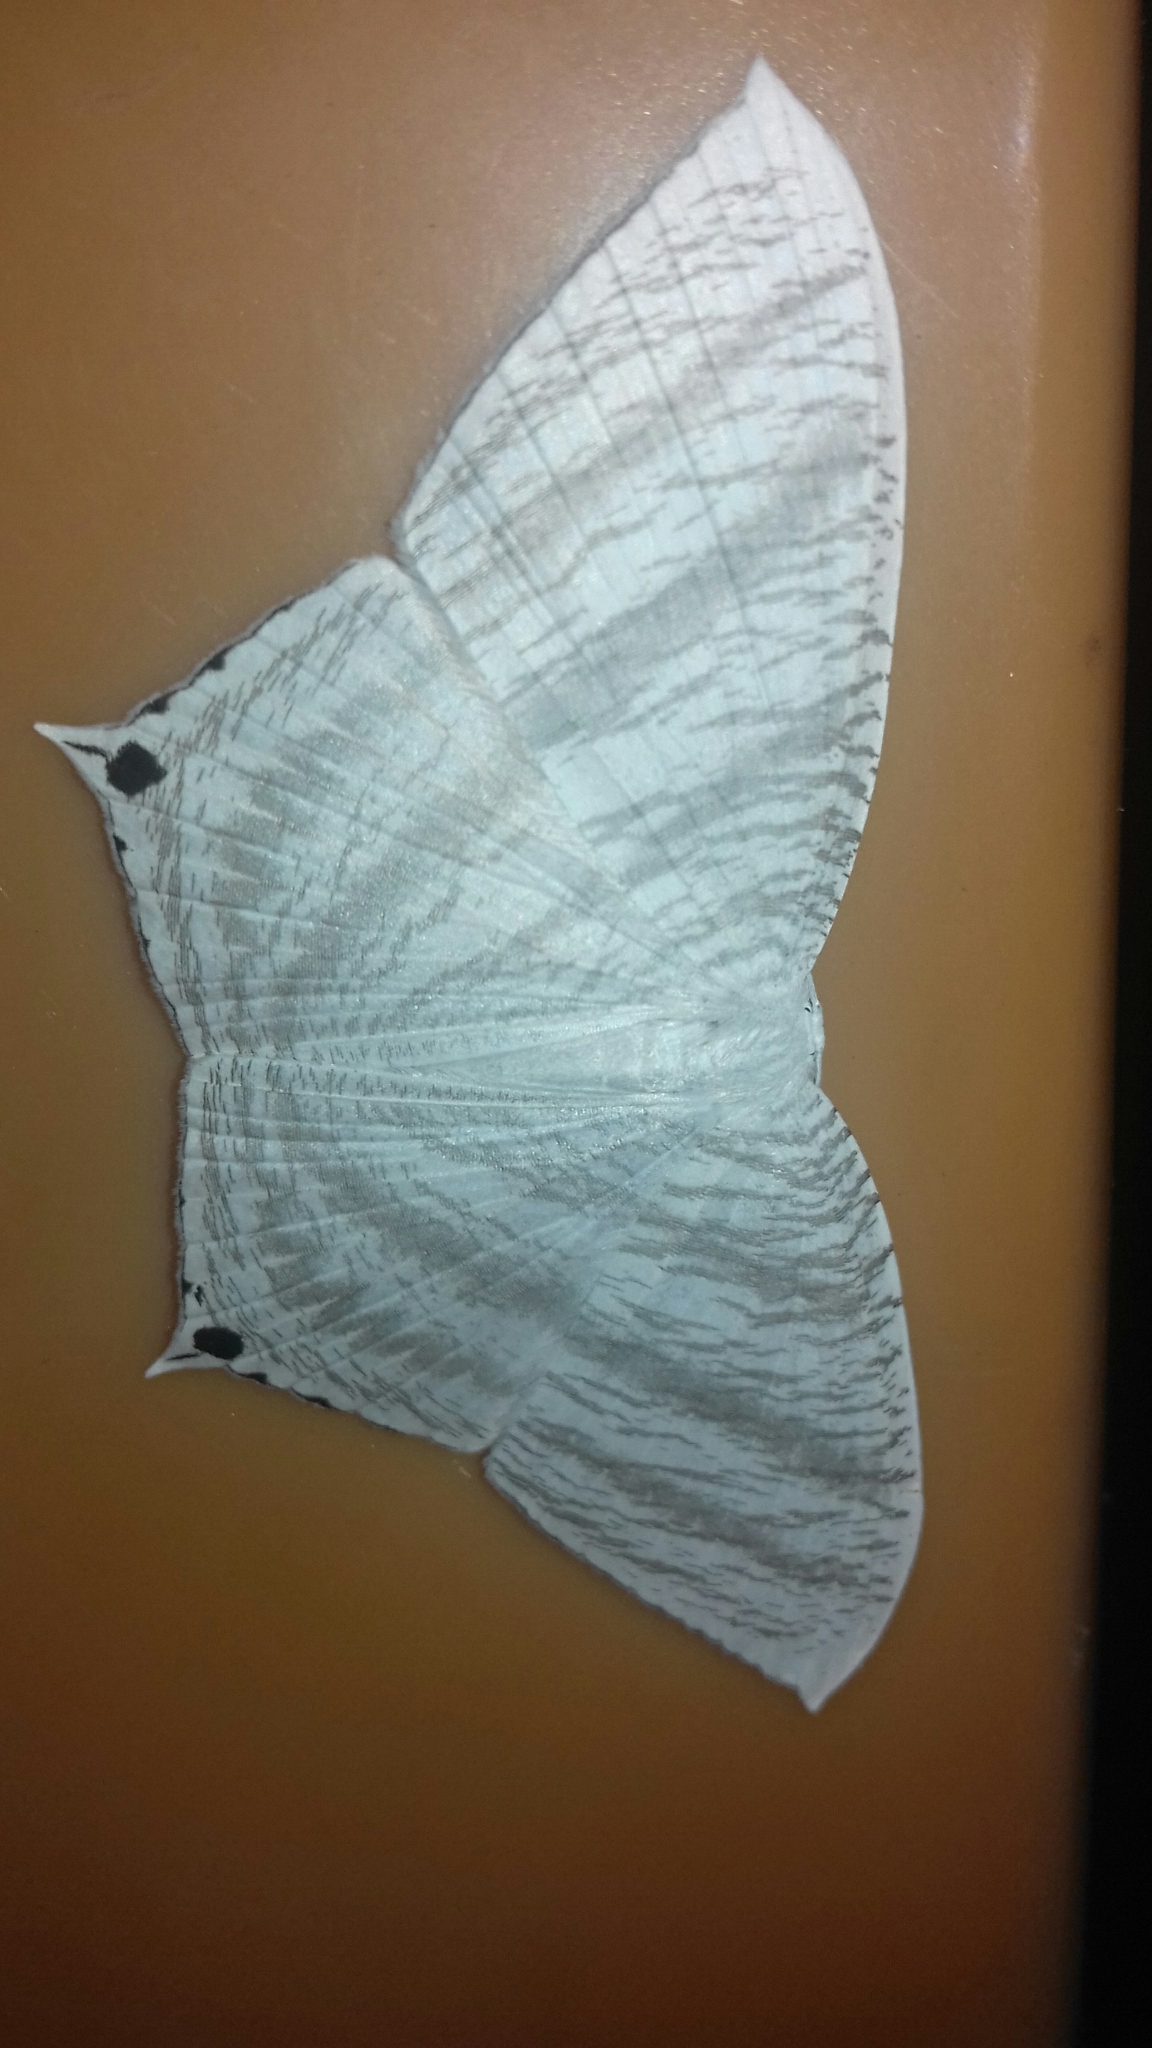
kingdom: Animalia
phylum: Arthropoda
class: Insecta
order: Lepidoptera
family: Uraniidae
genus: Micronia
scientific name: Micronia aculeata
